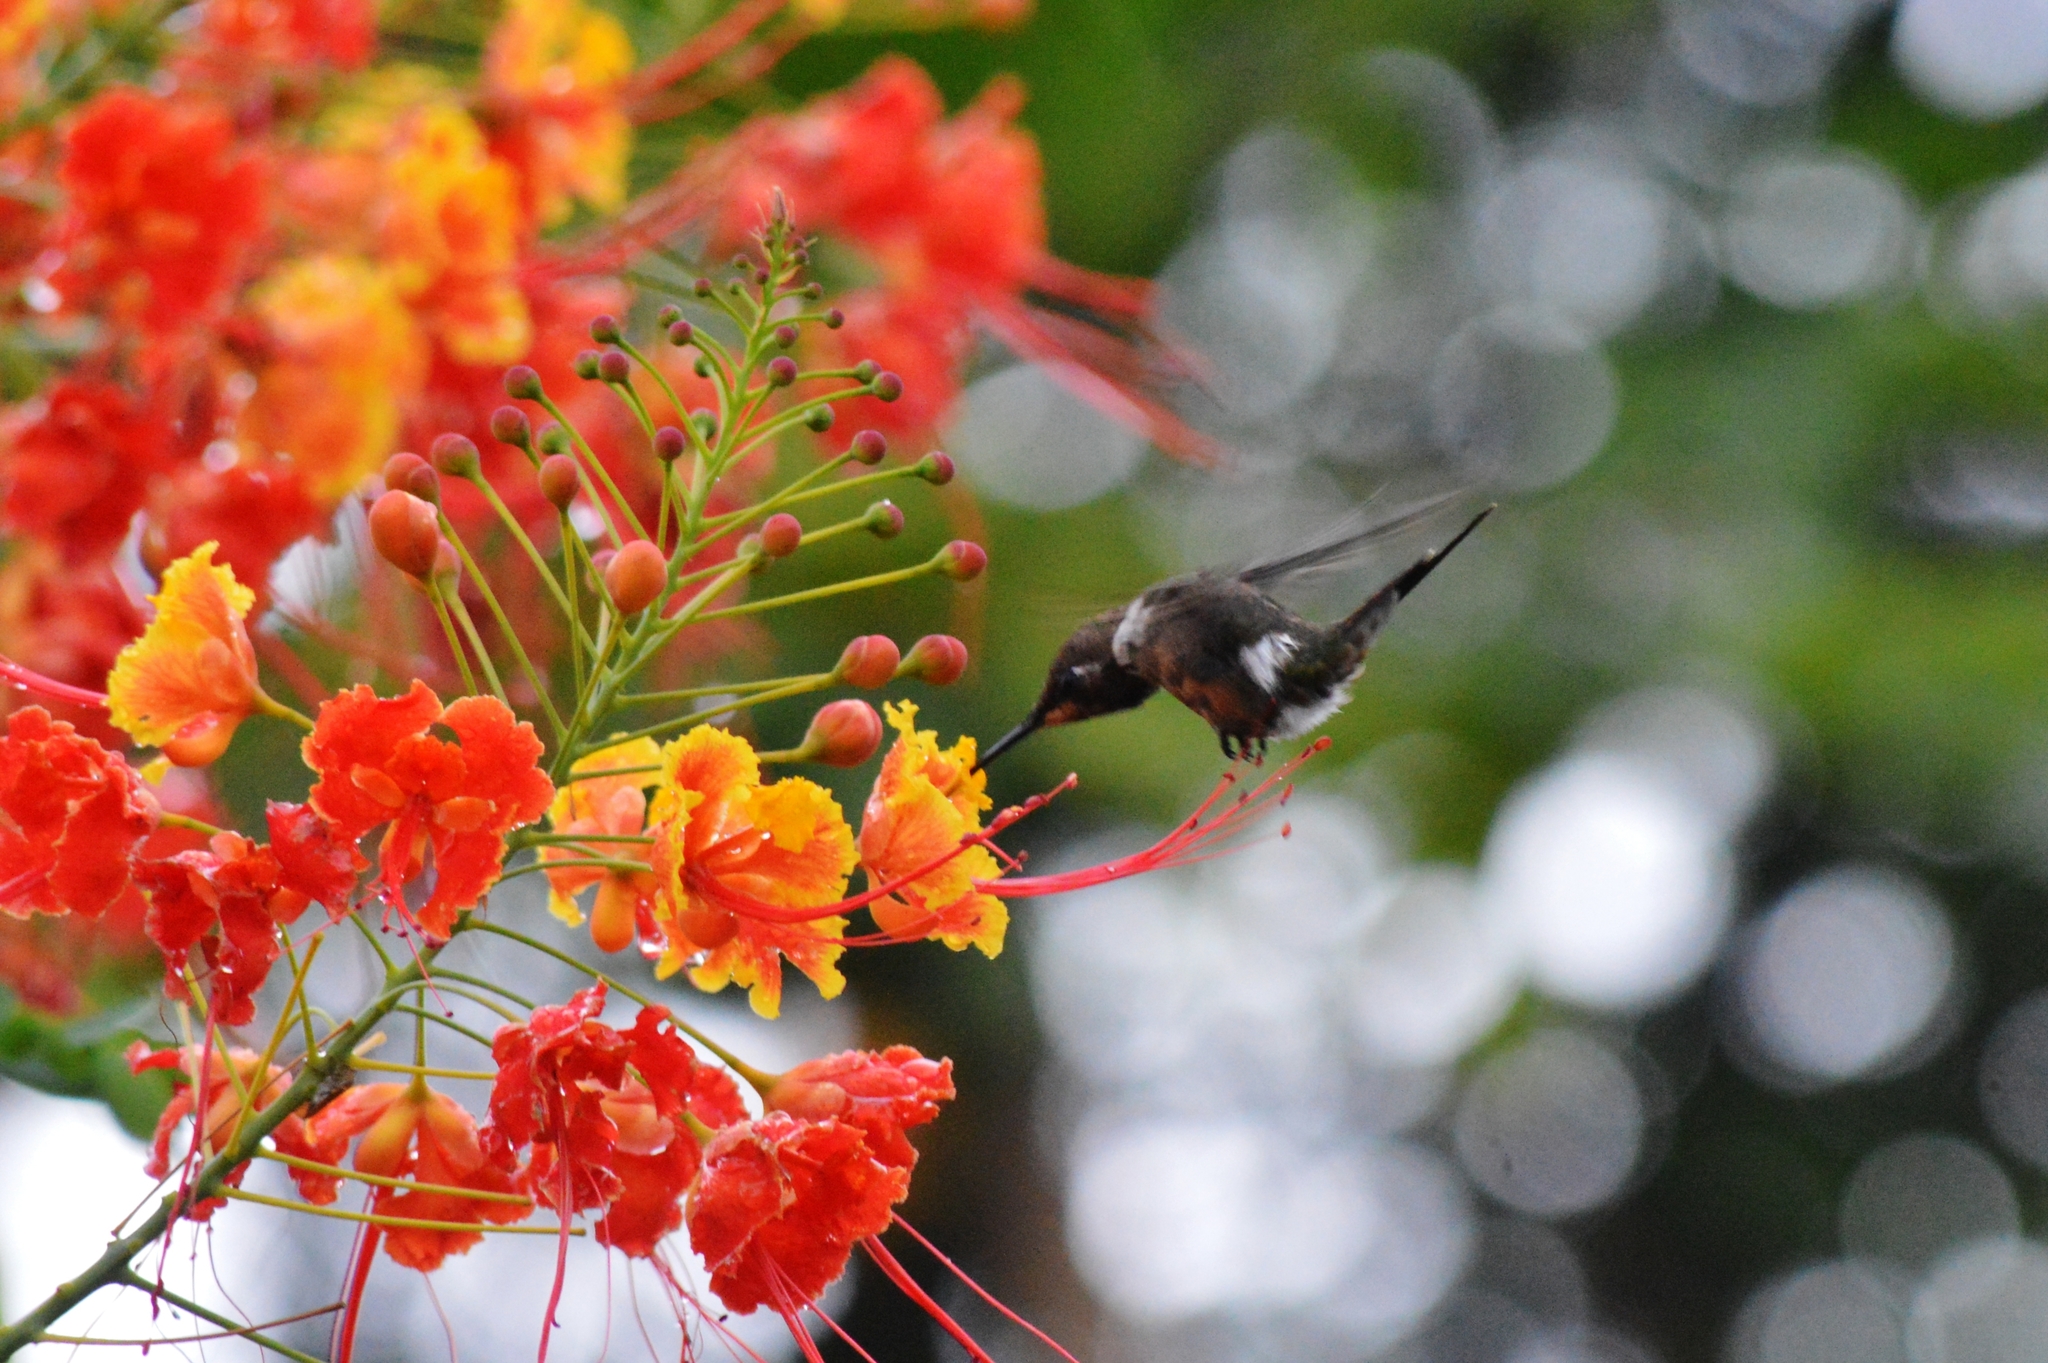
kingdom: Animalia
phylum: Chordata
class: Aves
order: Apodiformes
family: Trochilidae
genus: Calliphlox
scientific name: Calliphlox amethystina
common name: Amethyst woodstar
